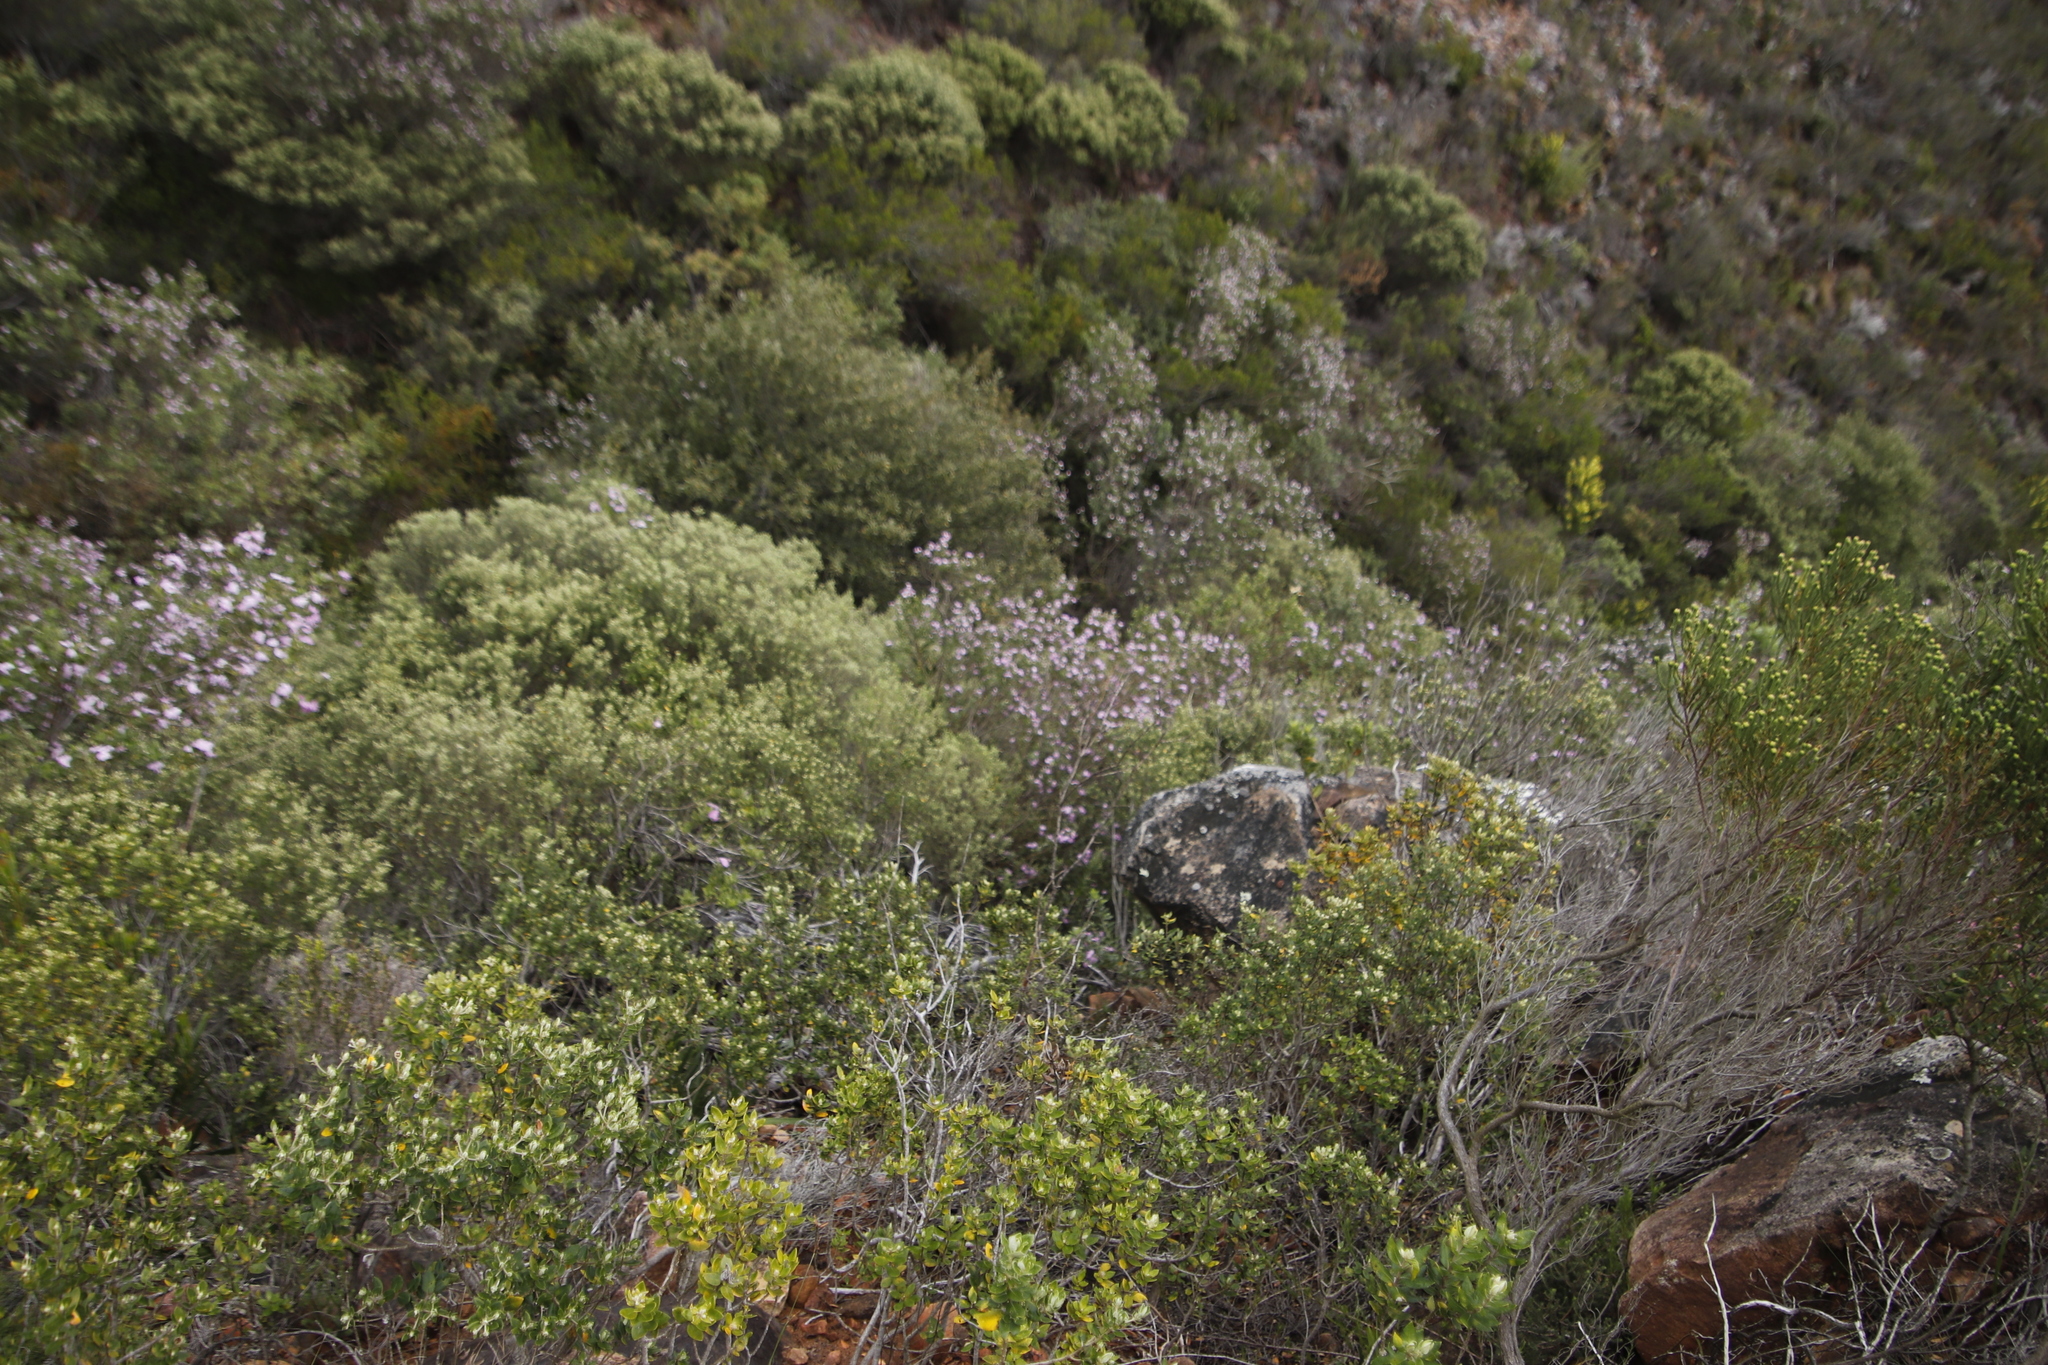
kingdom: Plantae
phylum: Tracheophyta
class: Magnoliopsida
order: Fabales
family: Fabaceae
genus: Podalyria
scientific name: Podalyria calyptrata
